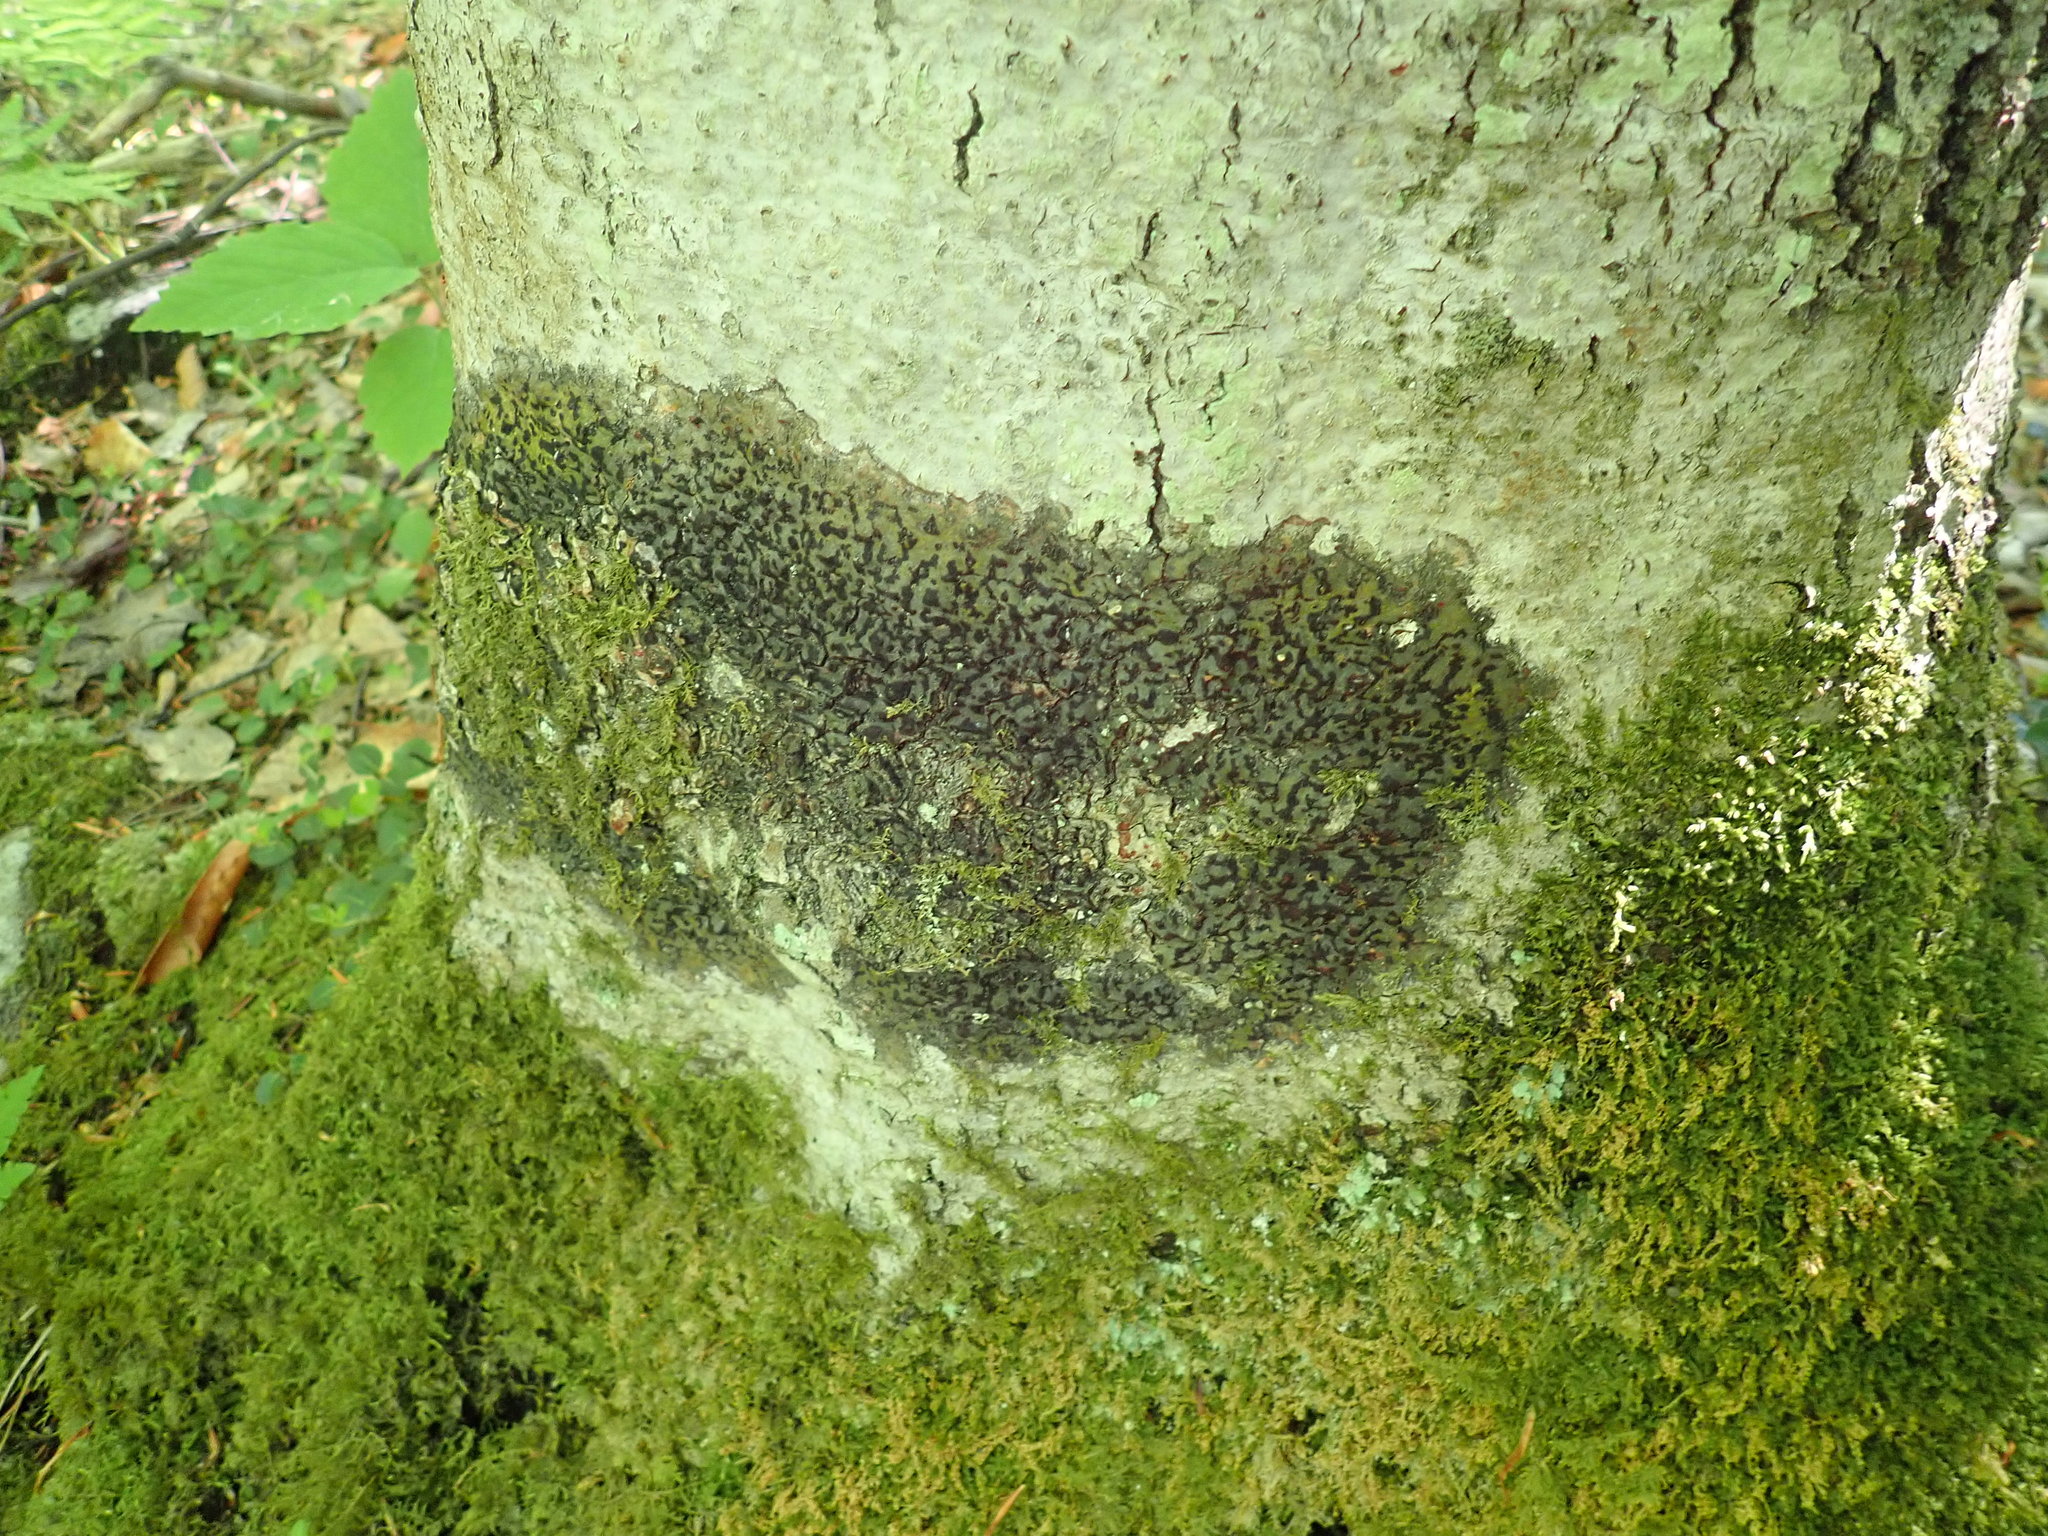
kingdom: Fungi
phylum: Ascomycota
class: Dothideomycetes
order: Trypetheliales
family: Trypetheliaceae
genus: Viridothelium
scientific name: Viridothelium virens
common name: Speckled blister lichen
